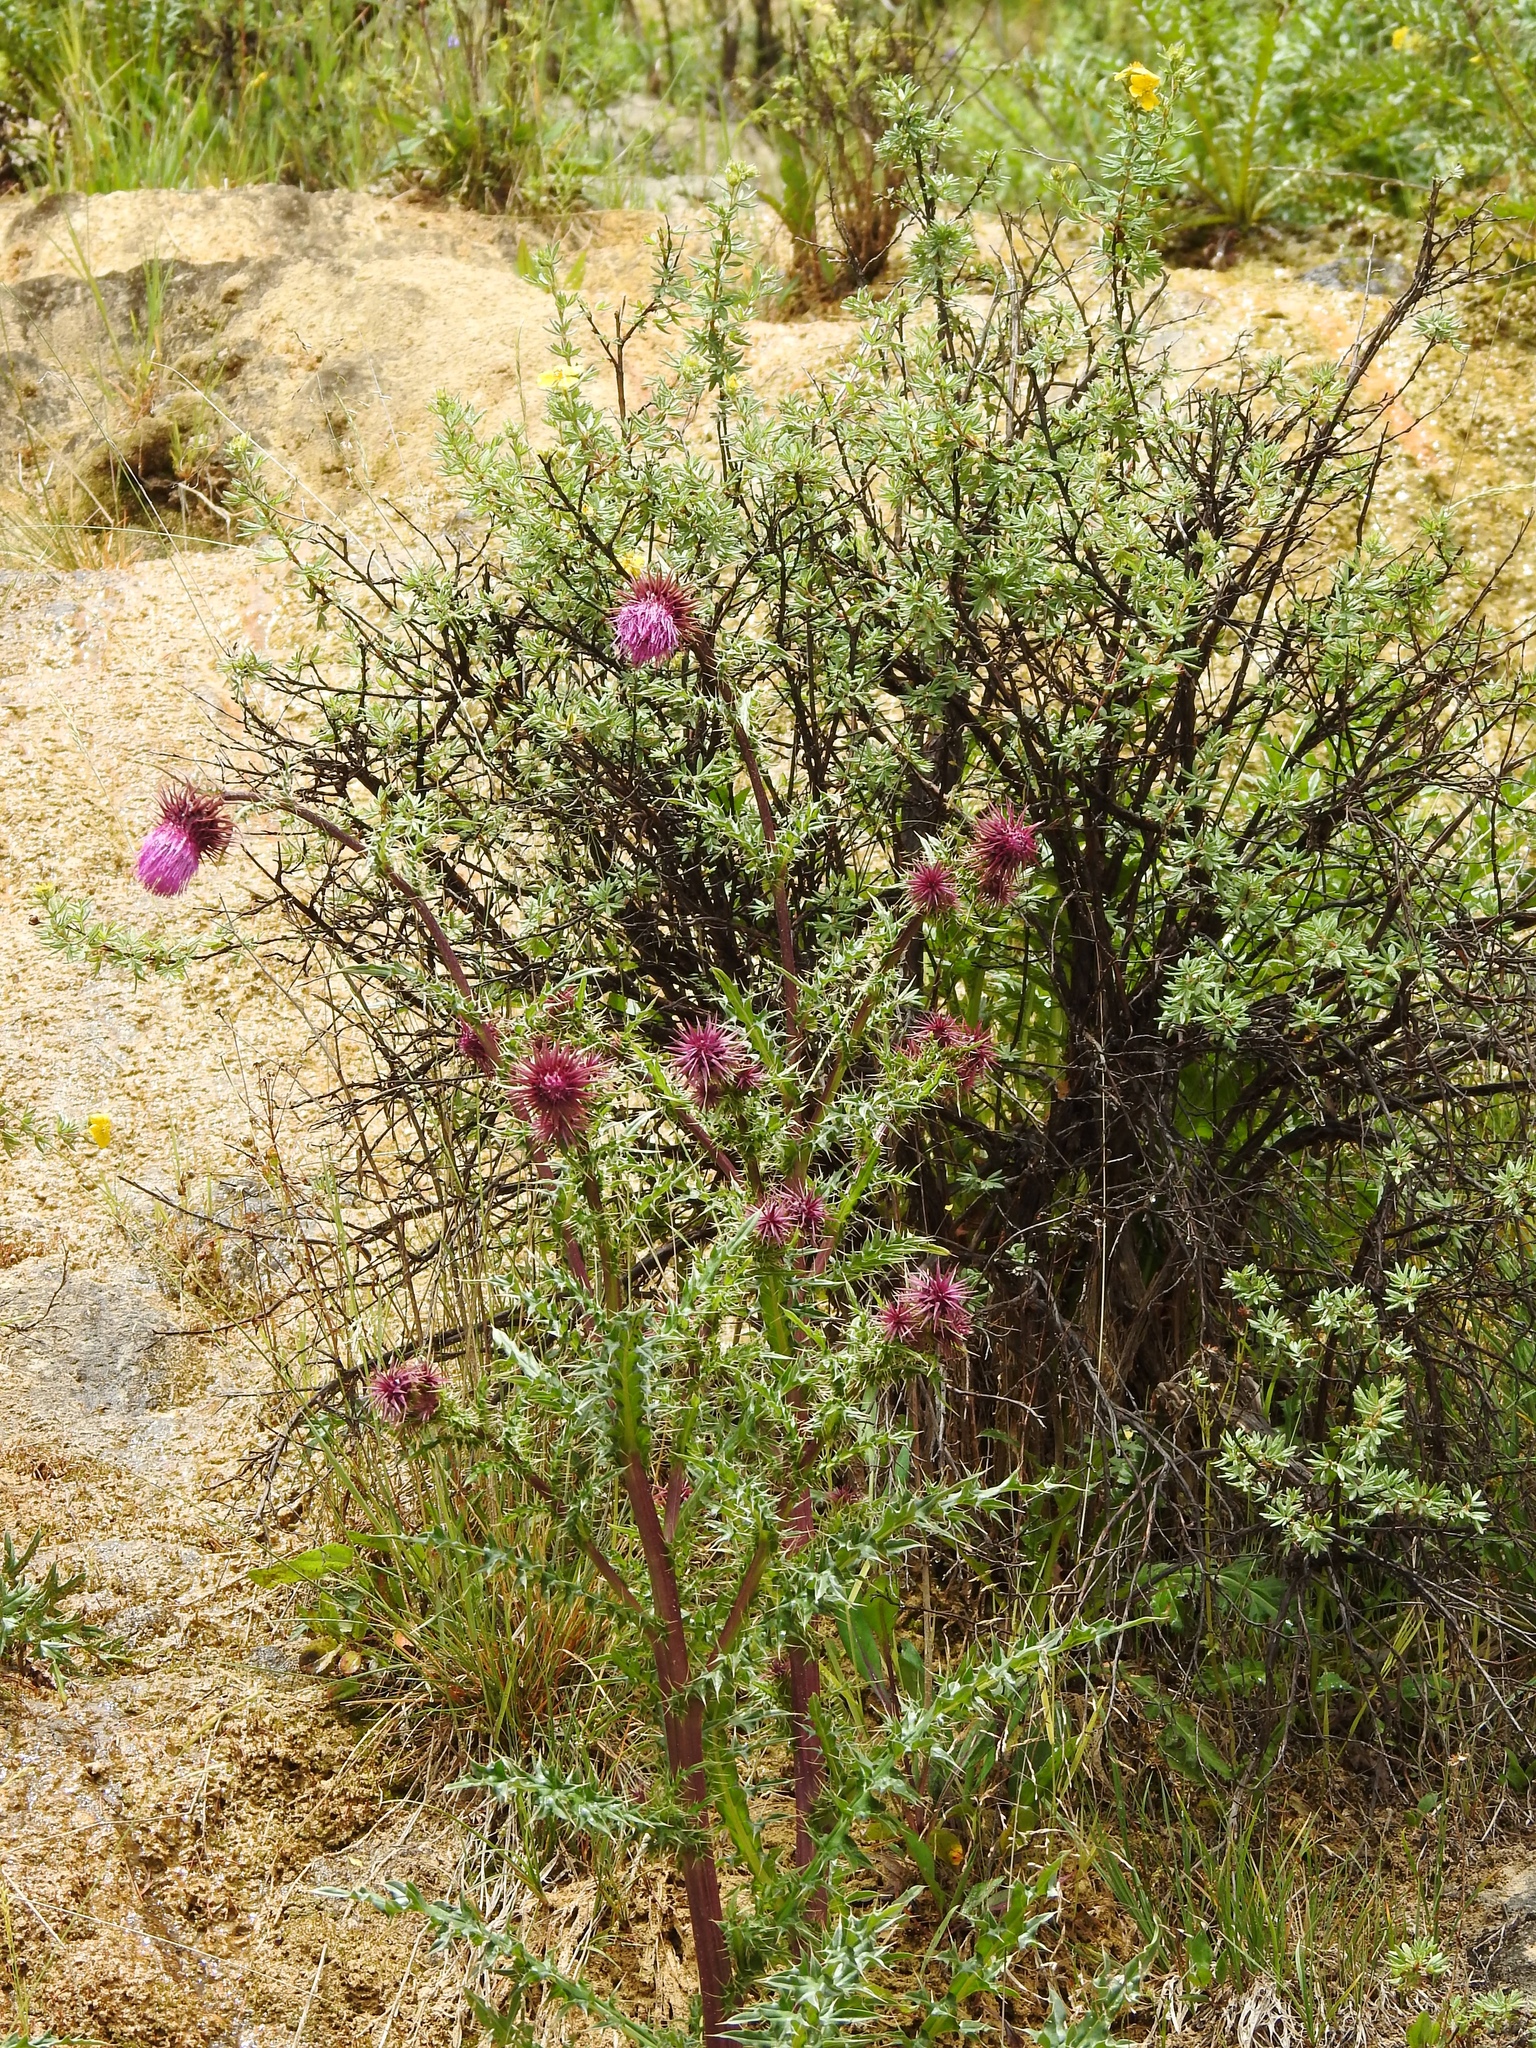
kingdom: Plantae
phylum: Tracheophyta
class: Magnoliopsida
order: Asterales
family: Asteraceae
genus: Cirsium
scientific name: Cirsium vinaceum
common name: Sacramento mountain thistle
